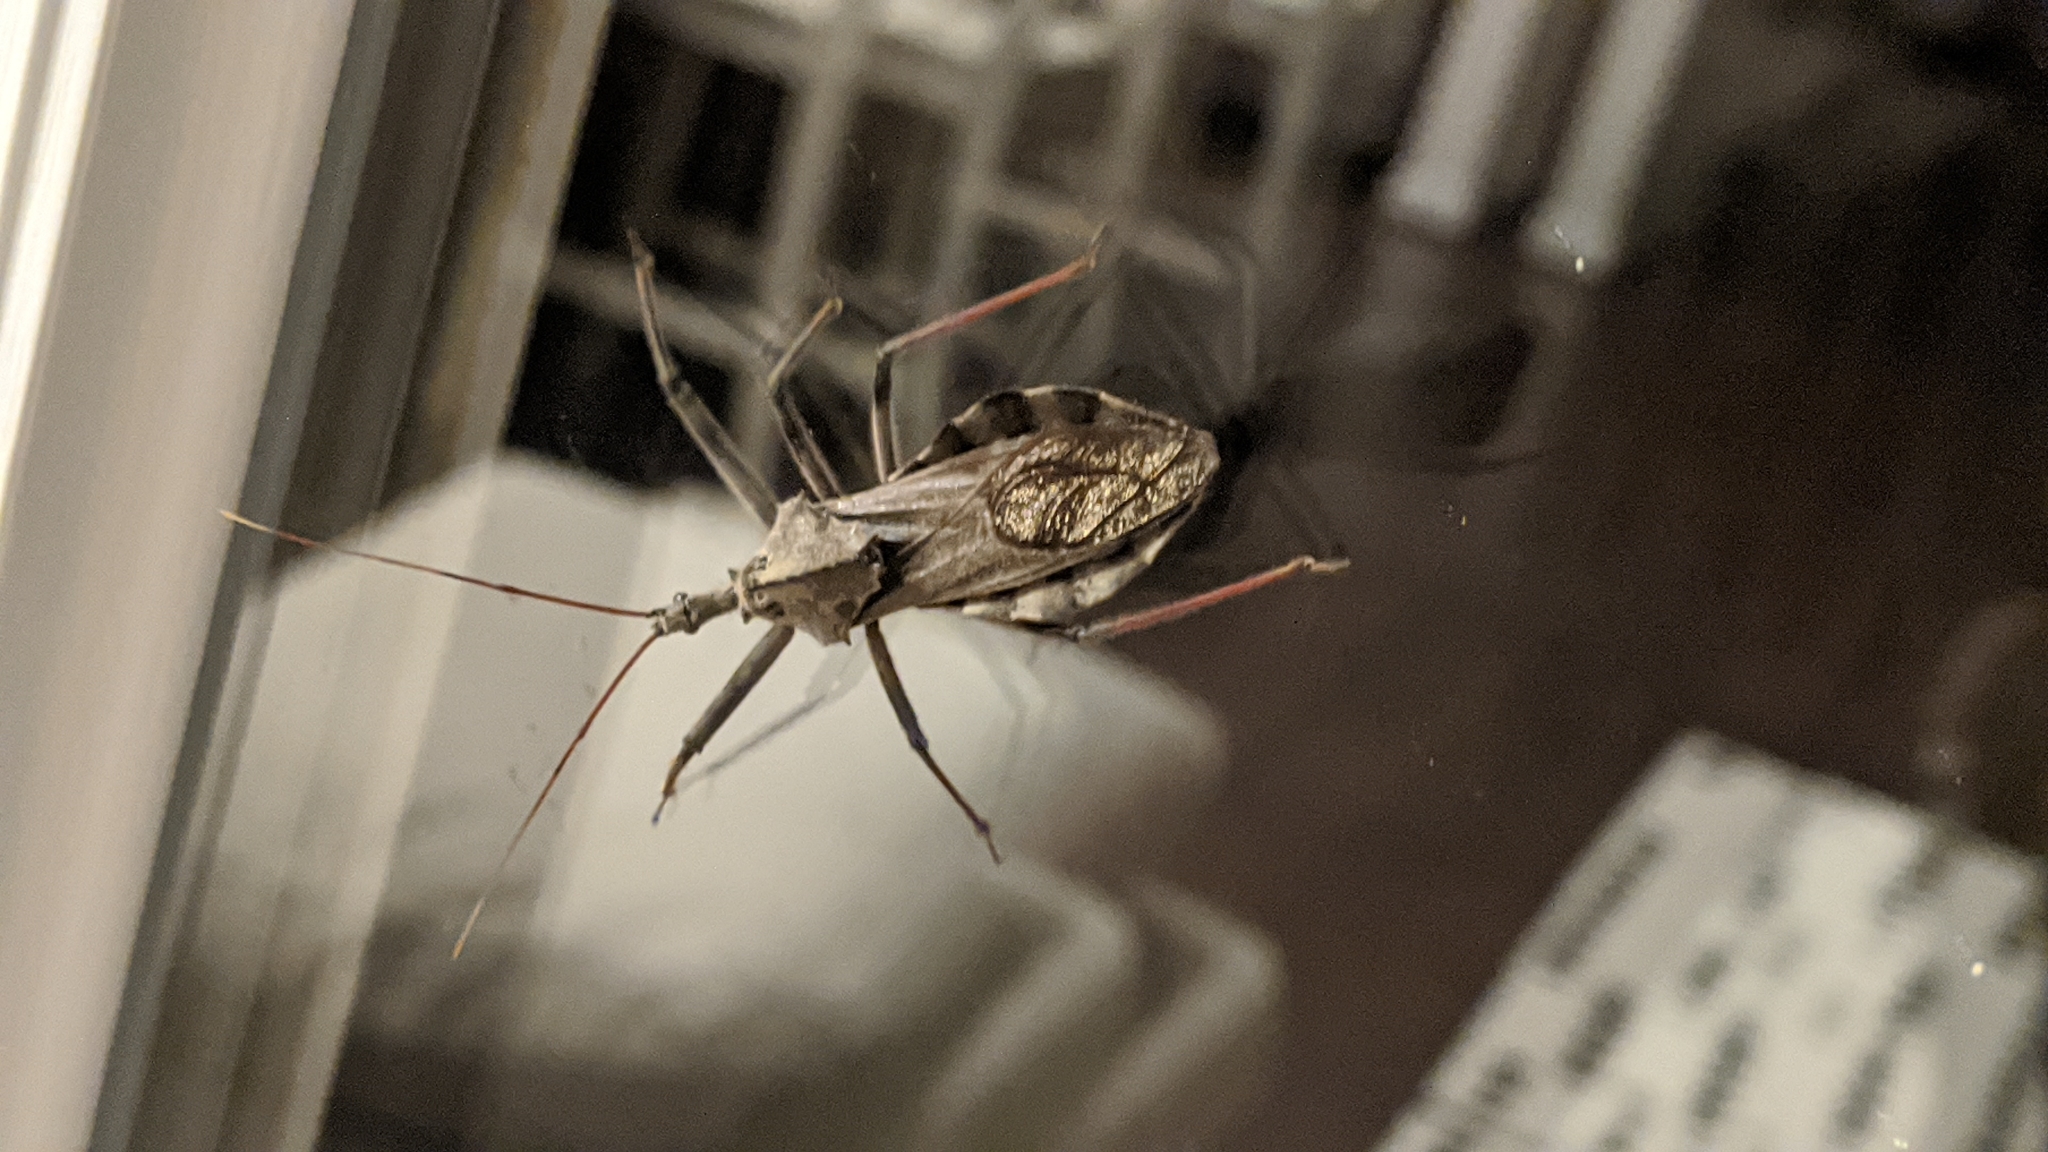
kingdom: Animalia
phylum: Arthropoda
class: Insecta
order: Hemiptera
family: Reduviidae
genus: Arilus
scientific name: Arilus cristatus
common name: North american wheel bug
